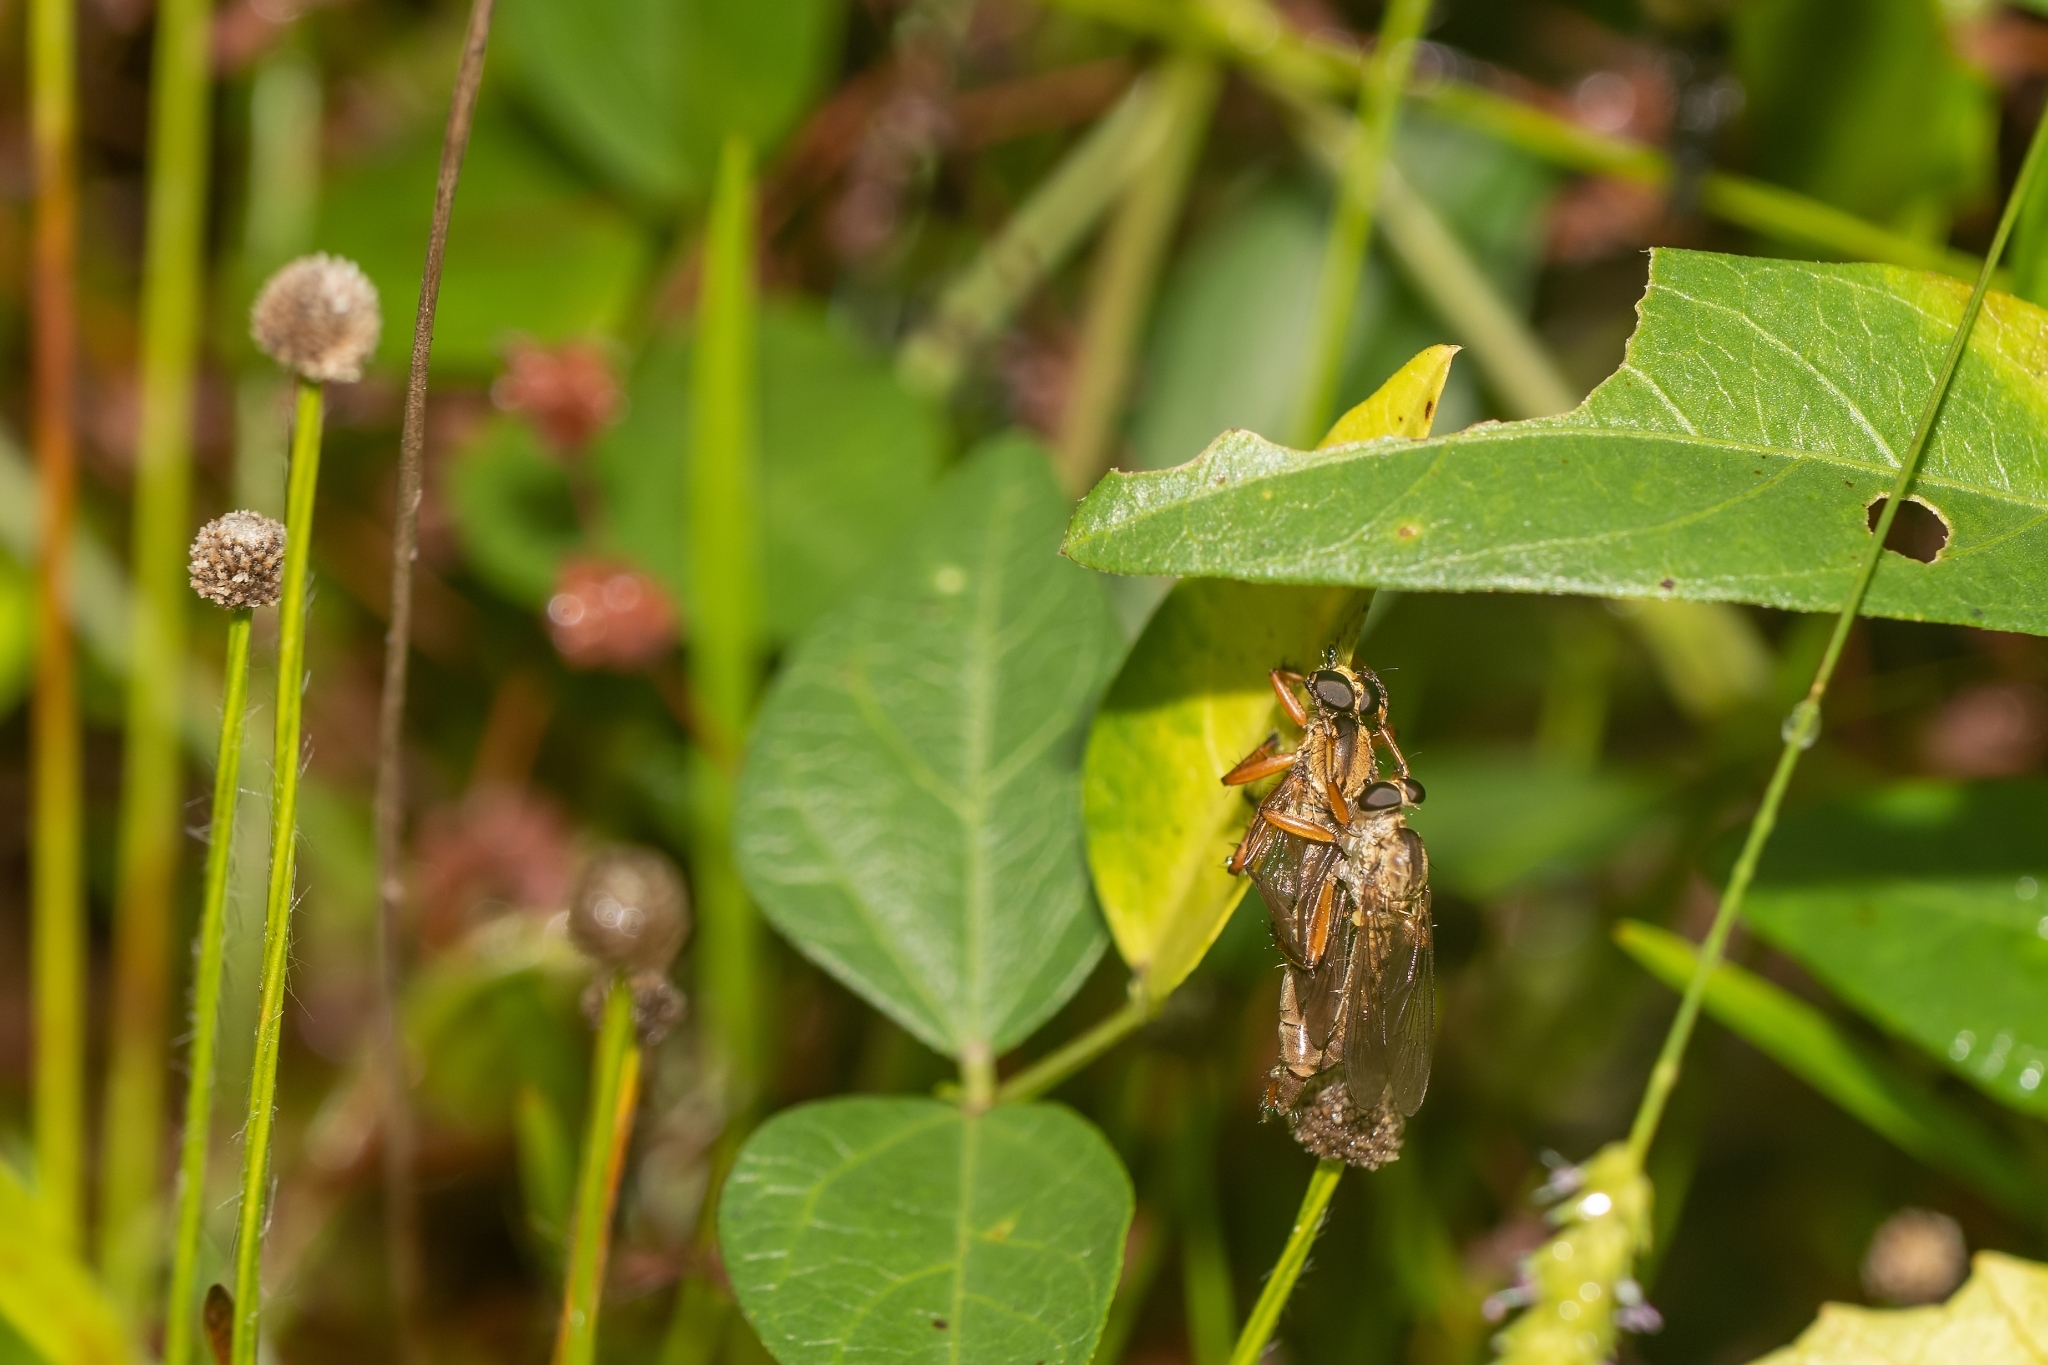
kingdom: Animalia
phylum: Arthropoda
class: Insecta
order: Diptera
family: Asilidae
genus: Polacantha
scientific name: Polacantha gracilis
